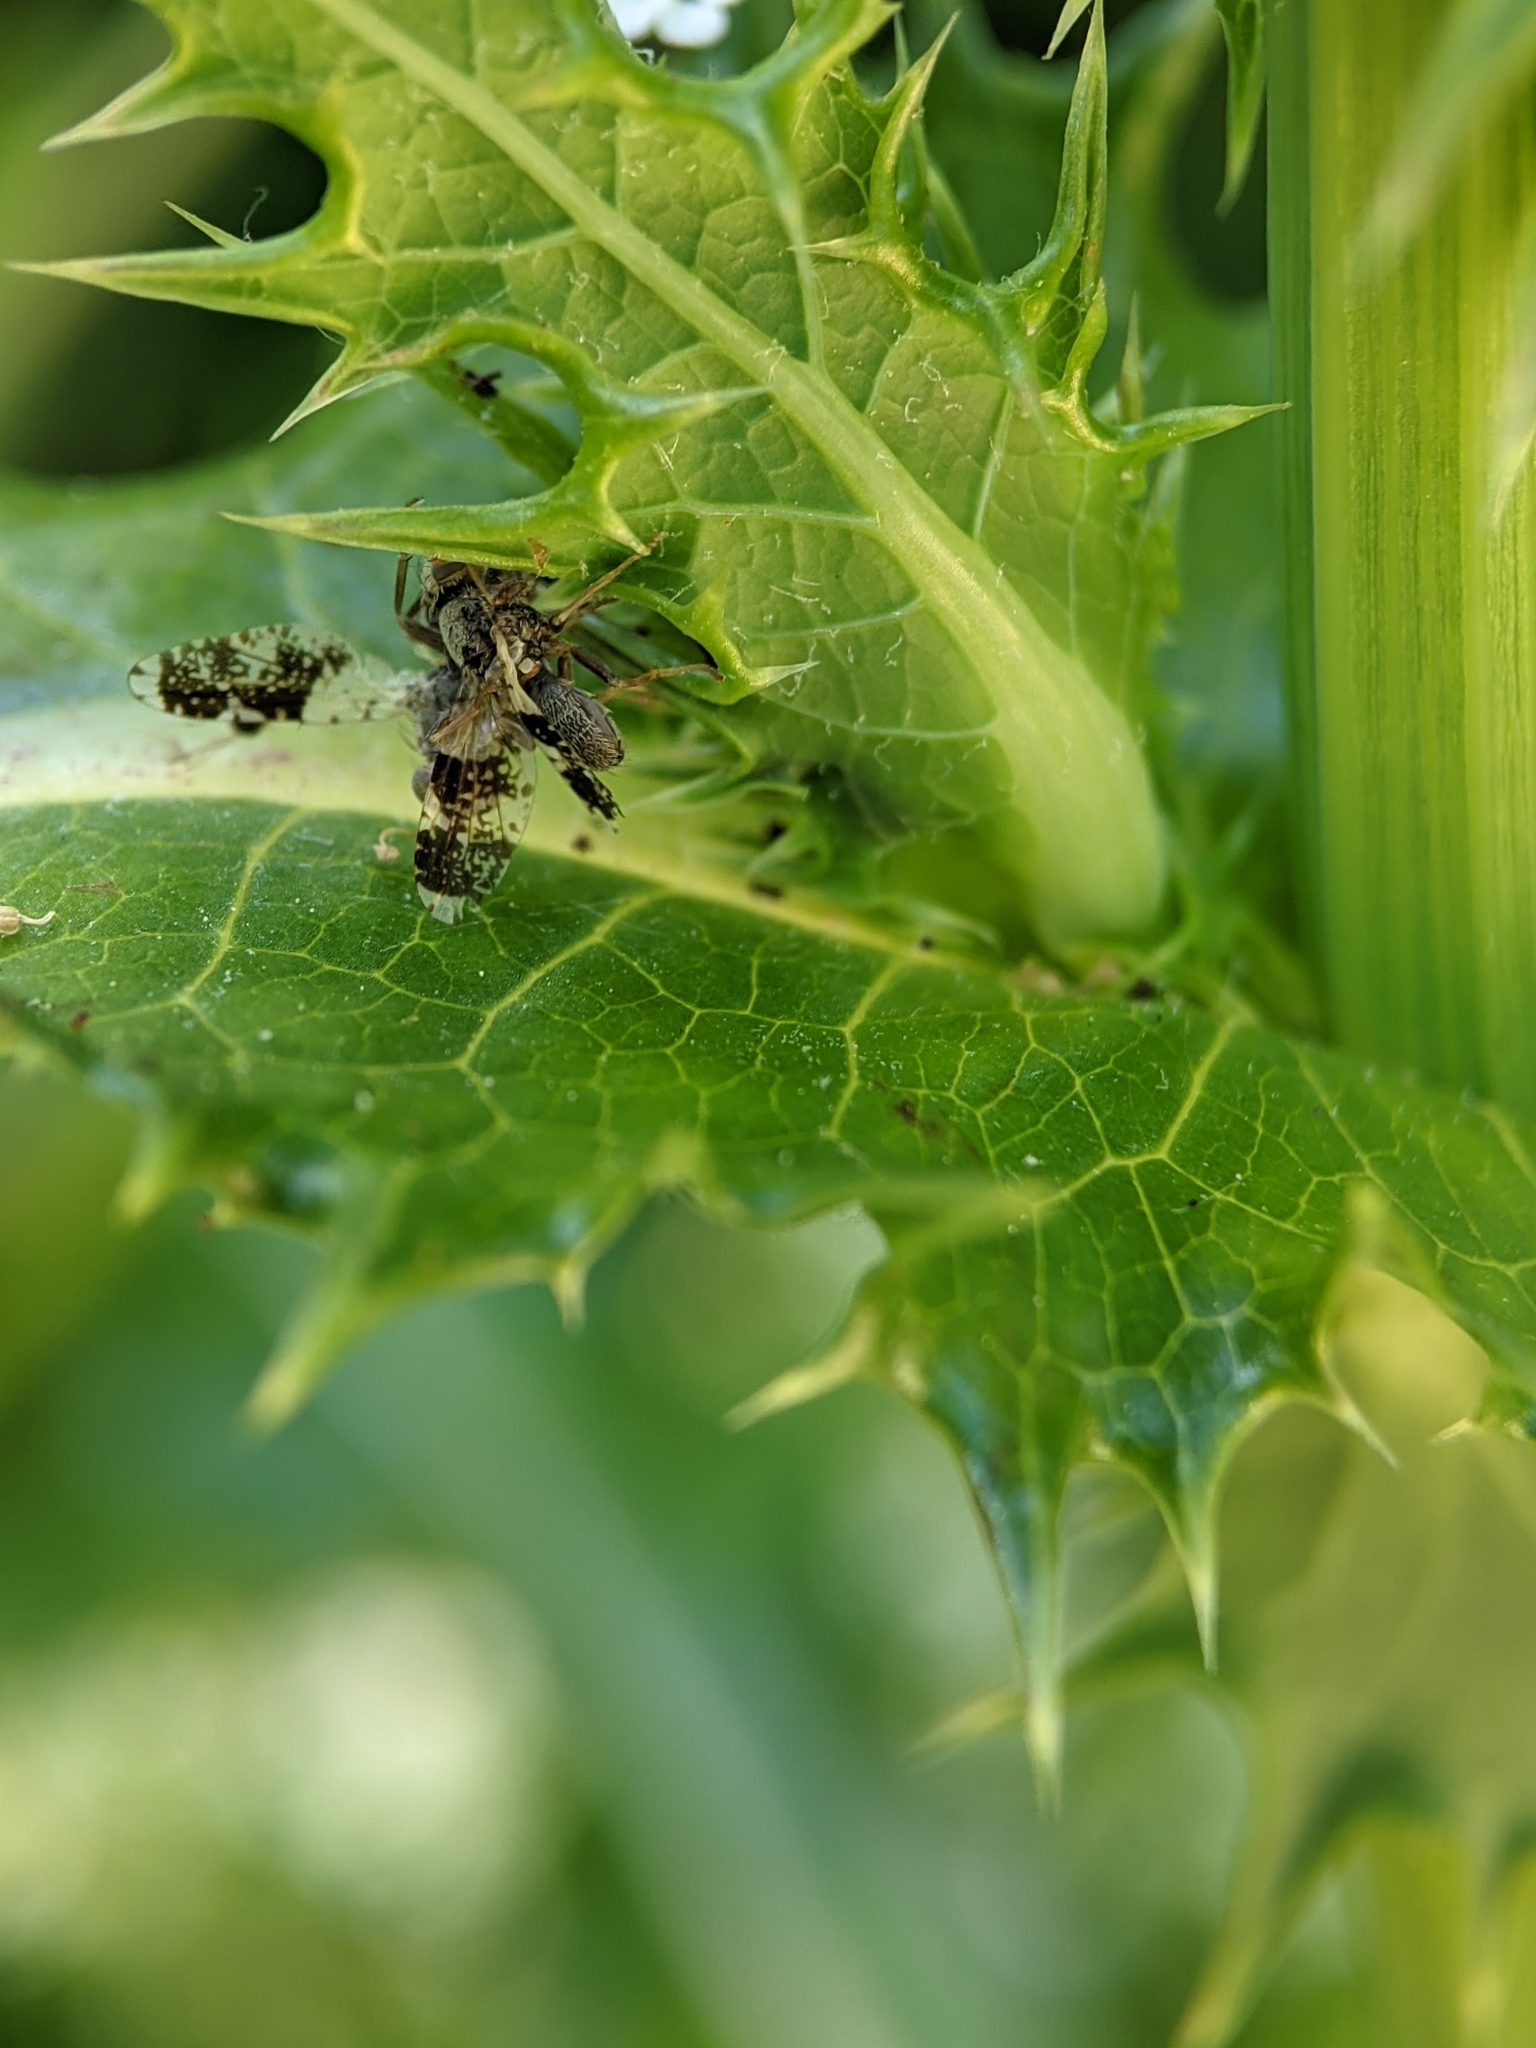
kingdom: Animalia
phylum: Arthropoda
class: Insecta
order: Diptera
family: Tephritidae
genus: Tephritis
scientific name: Tephritis formosa
